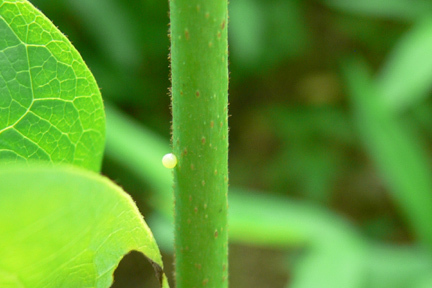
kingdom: Animalia
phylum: Arthropoda
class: Insecta
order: Lepidoptera
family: Papilionidae
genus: Protographium
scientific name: Protographium marcellus
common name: Zebra swallowtail
